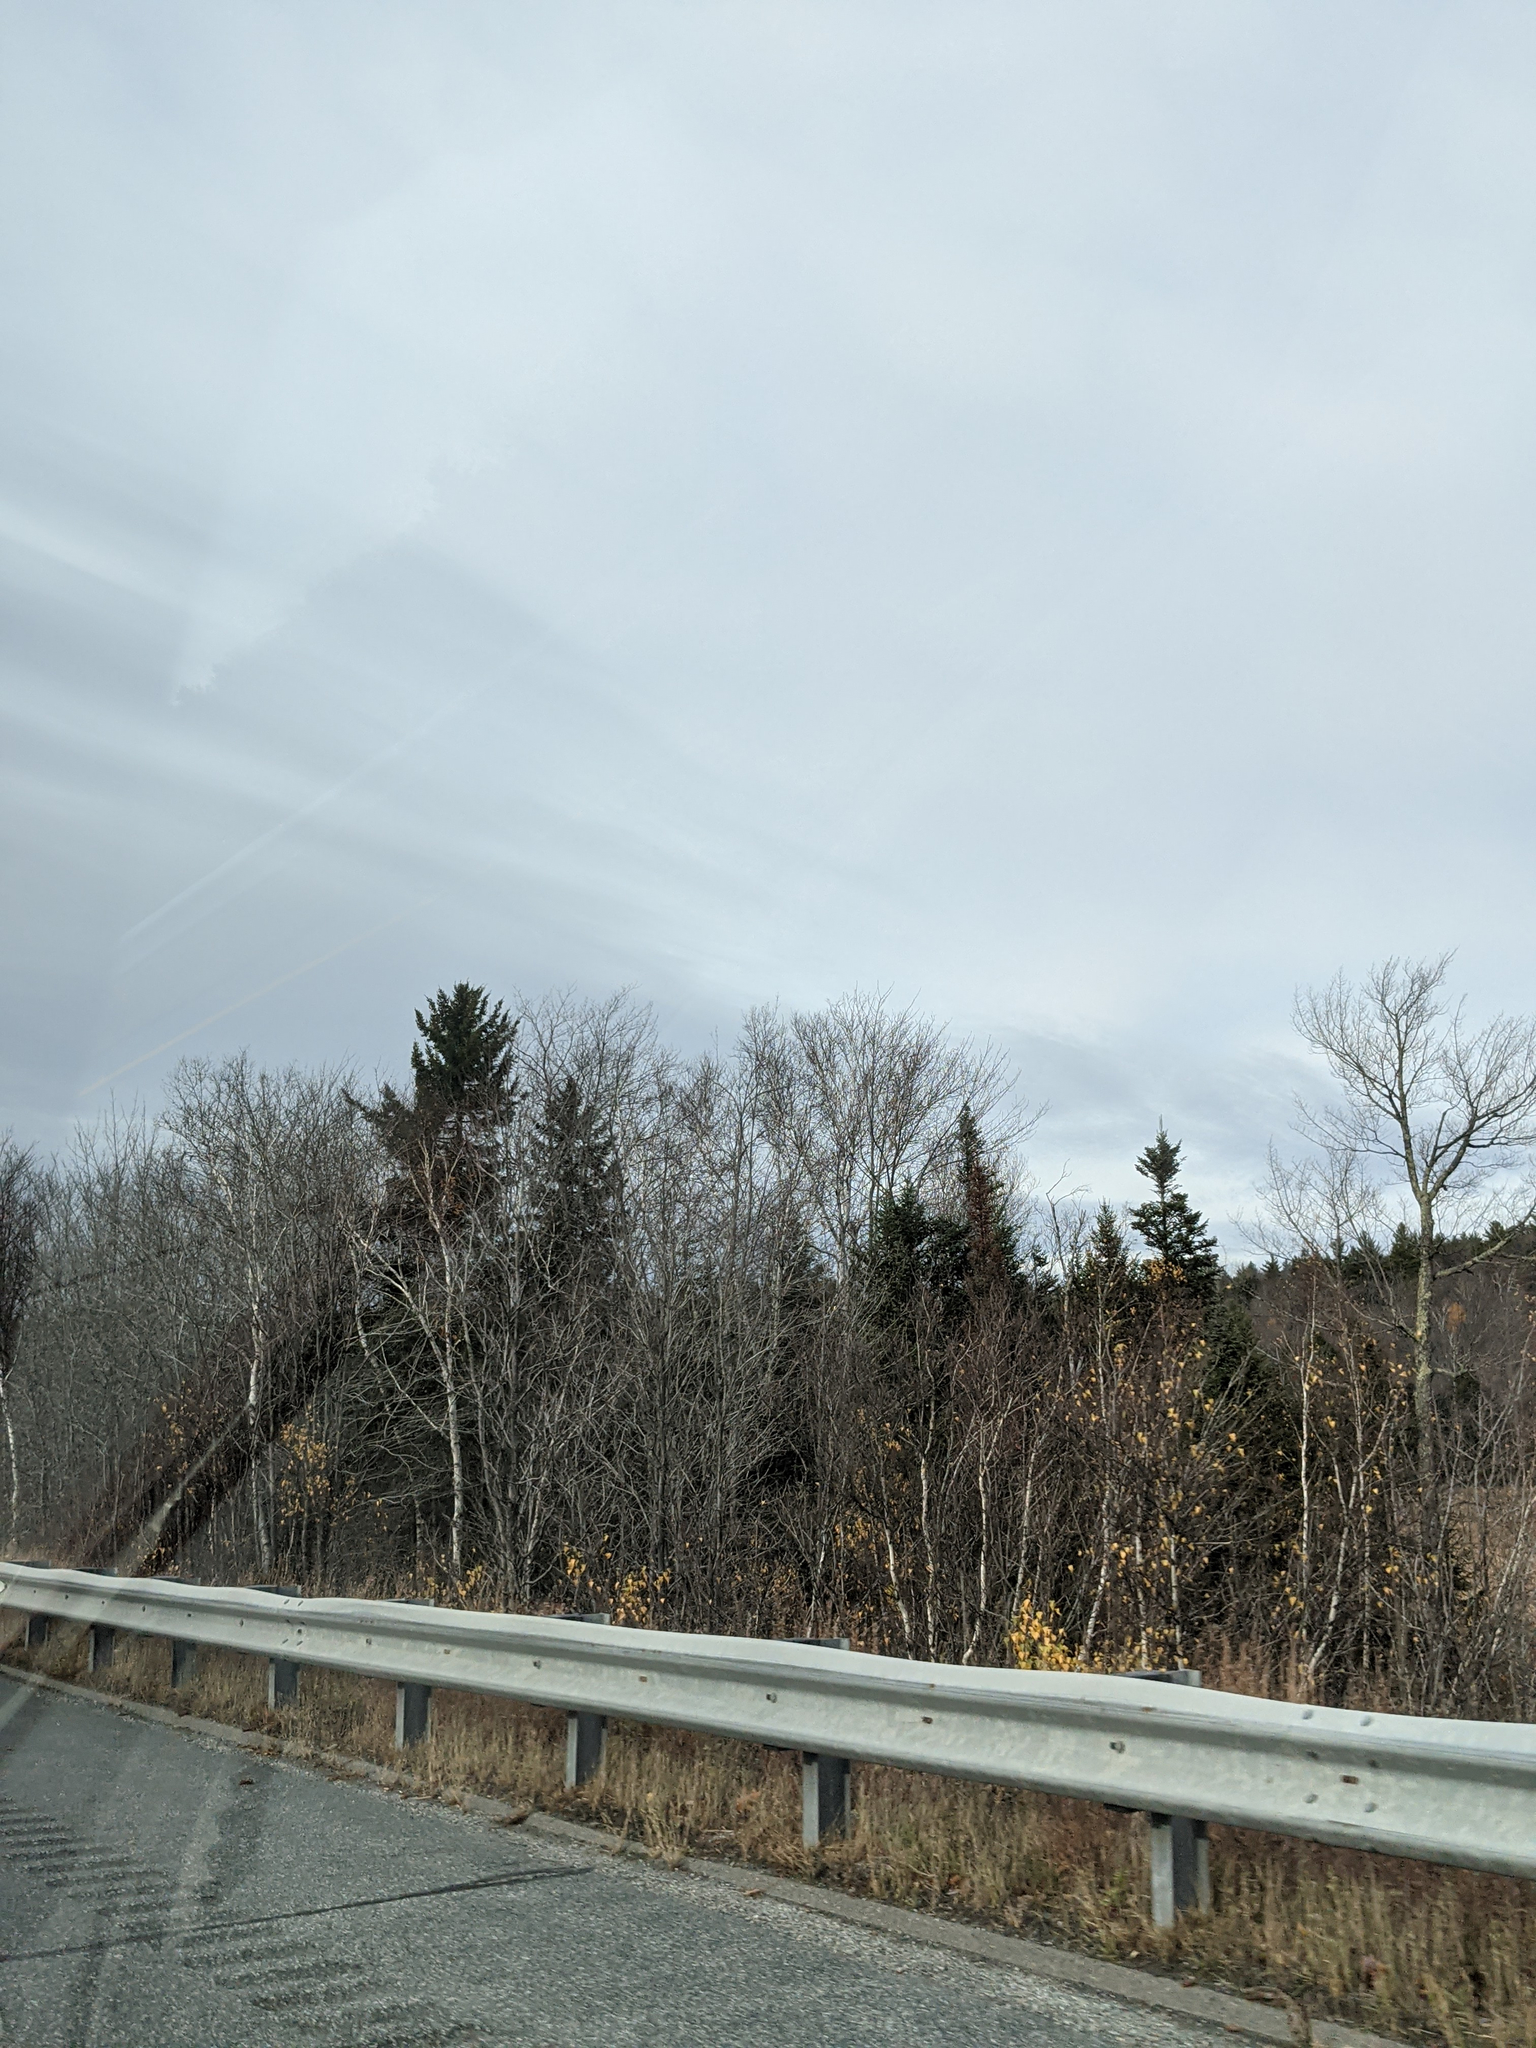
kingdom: Plantae
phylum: Tracheophyta
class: Pinopsida
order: Pinales
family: Pinaceae
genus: Pinus
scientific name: Pinus strobus
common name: Weymouth pine
